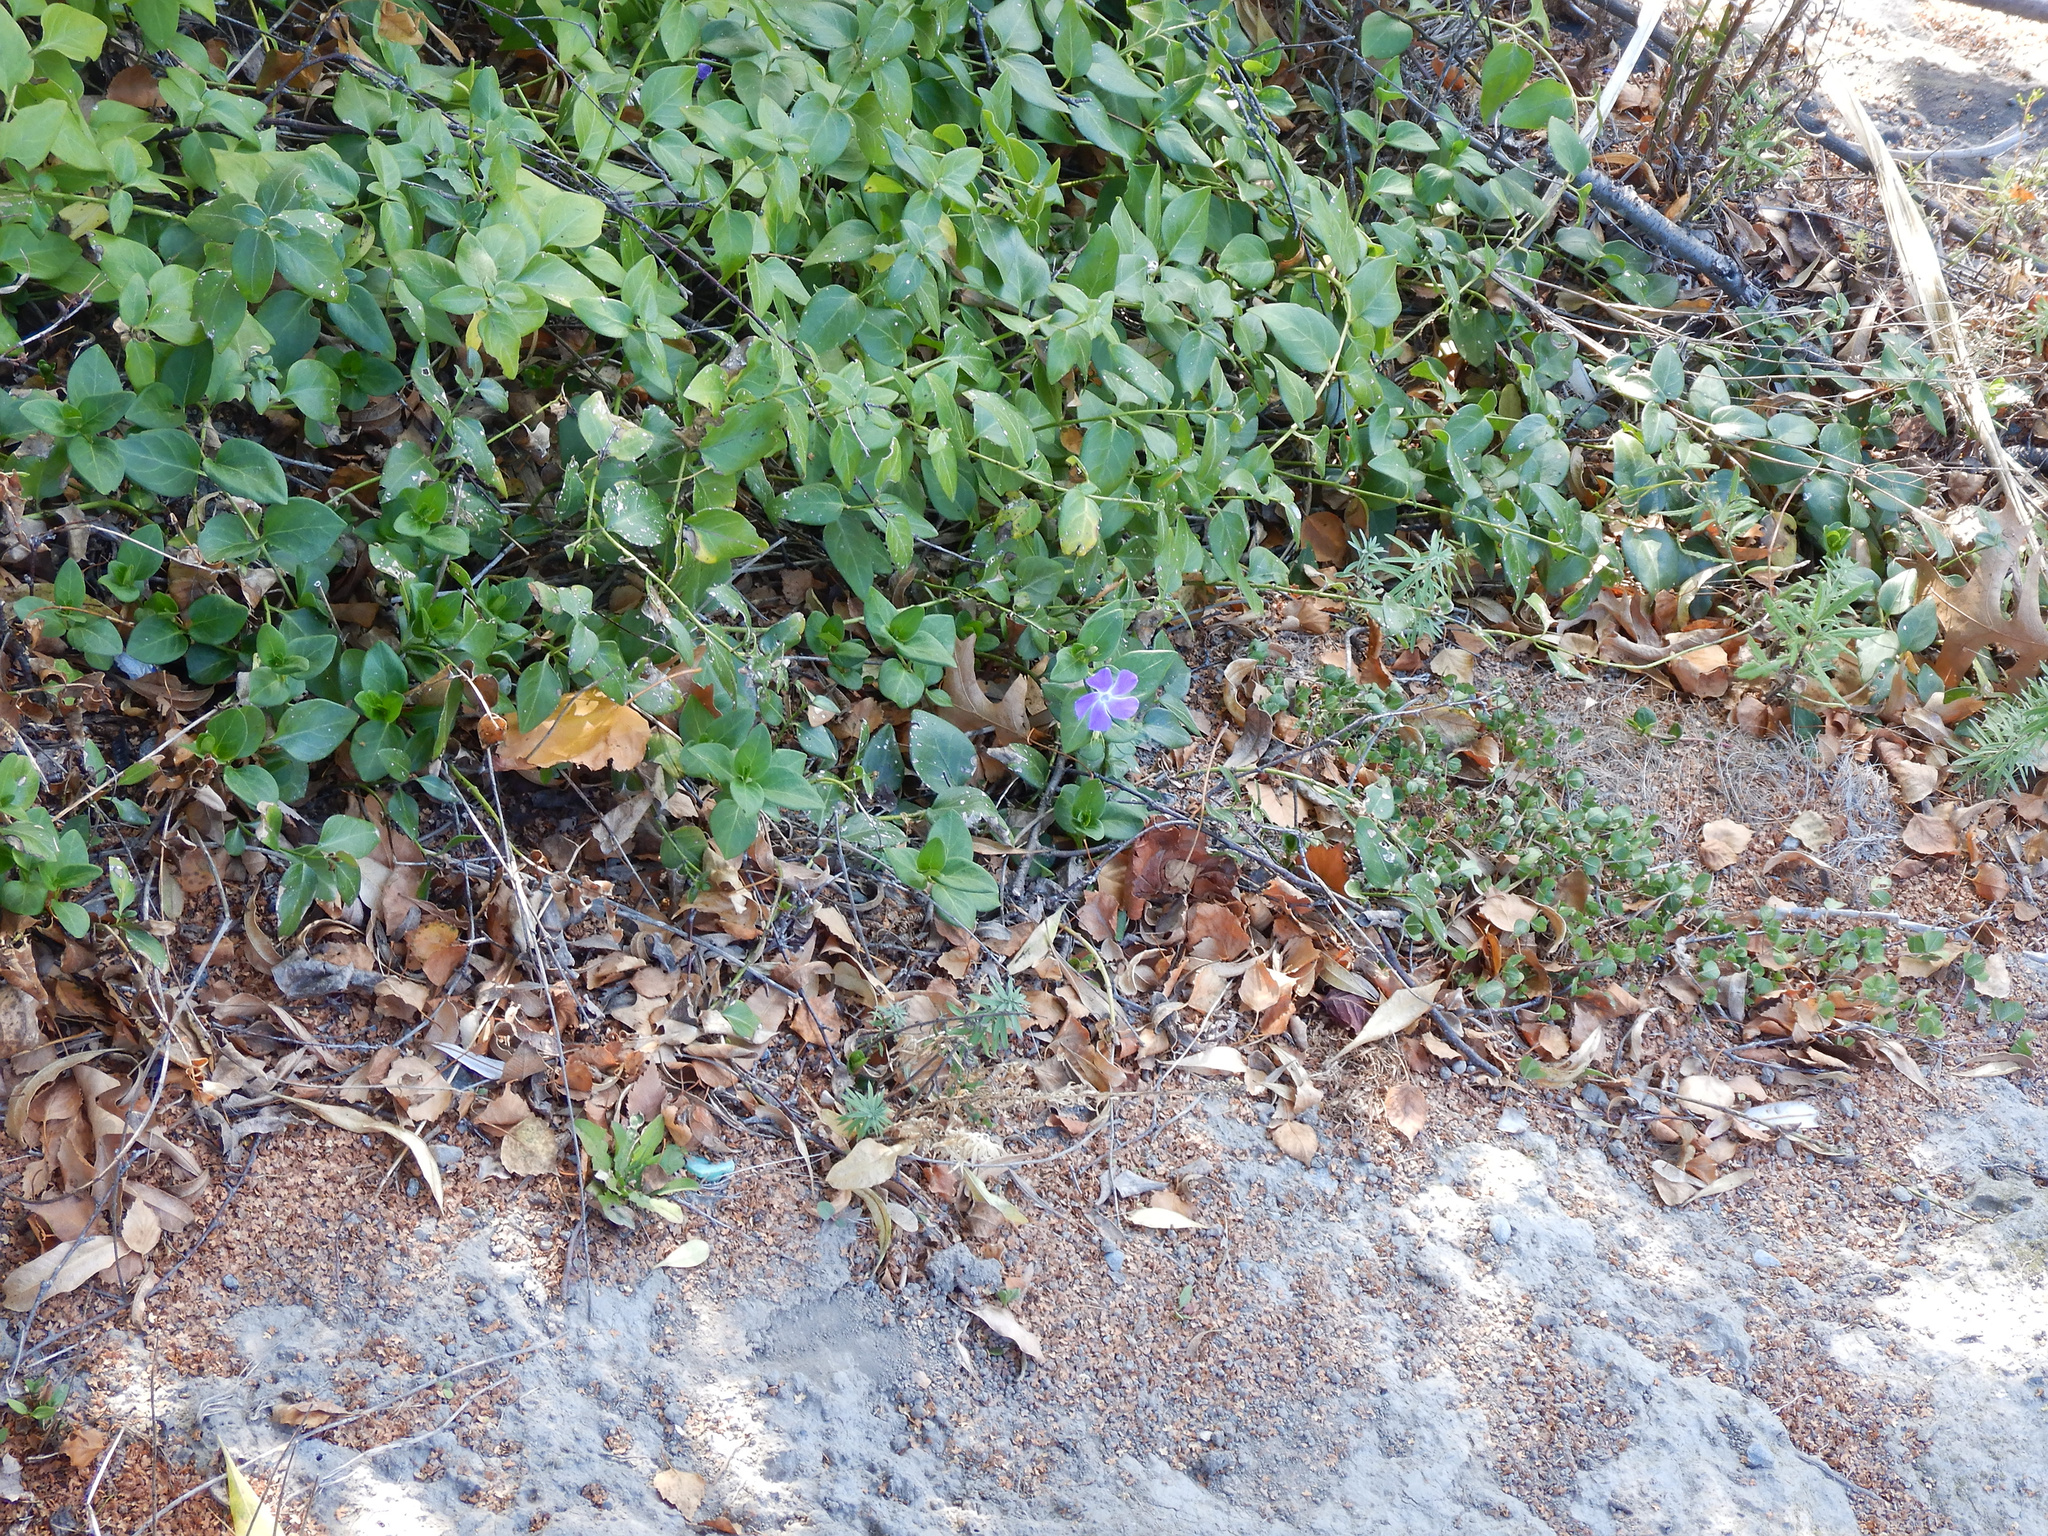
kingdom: Plantae
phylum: Tracheophyta
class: Magnoliopsida
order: Gentianales
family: Apocynaceae
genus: Vinca
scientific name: Vinca major
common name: Greater periwinkle
